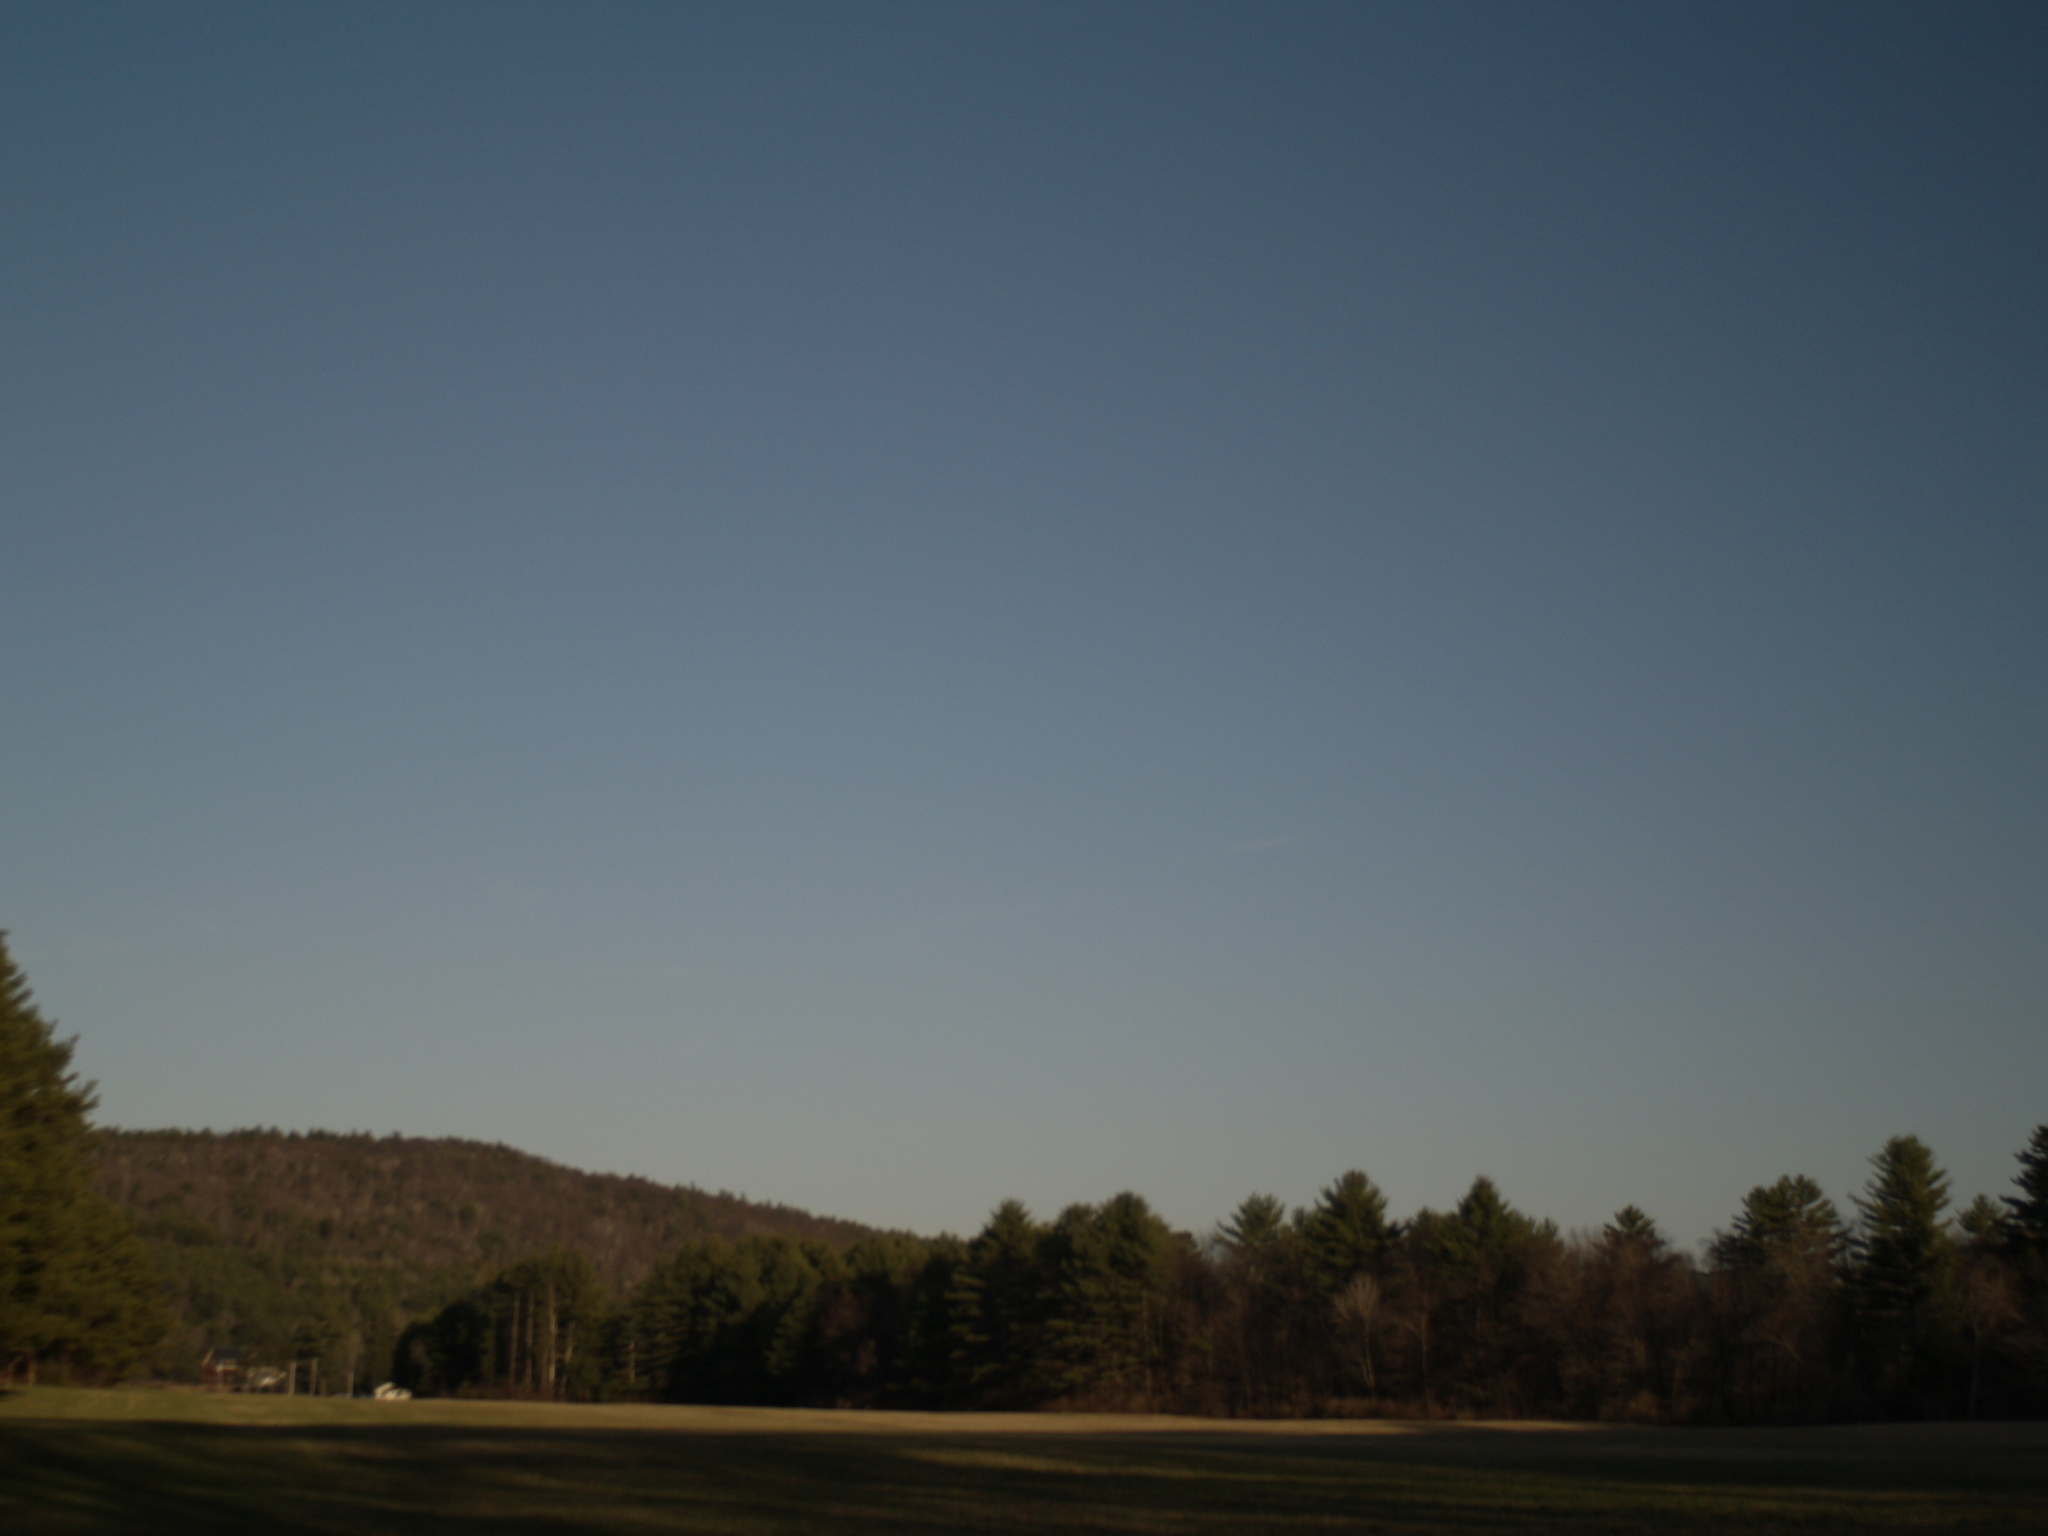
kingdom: Plantae
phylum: Tracheophyta
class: Pinopsida
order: Pinales
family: Pinaceae
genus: Pinus
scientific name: Pinus strobus
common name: Weymouth pine
